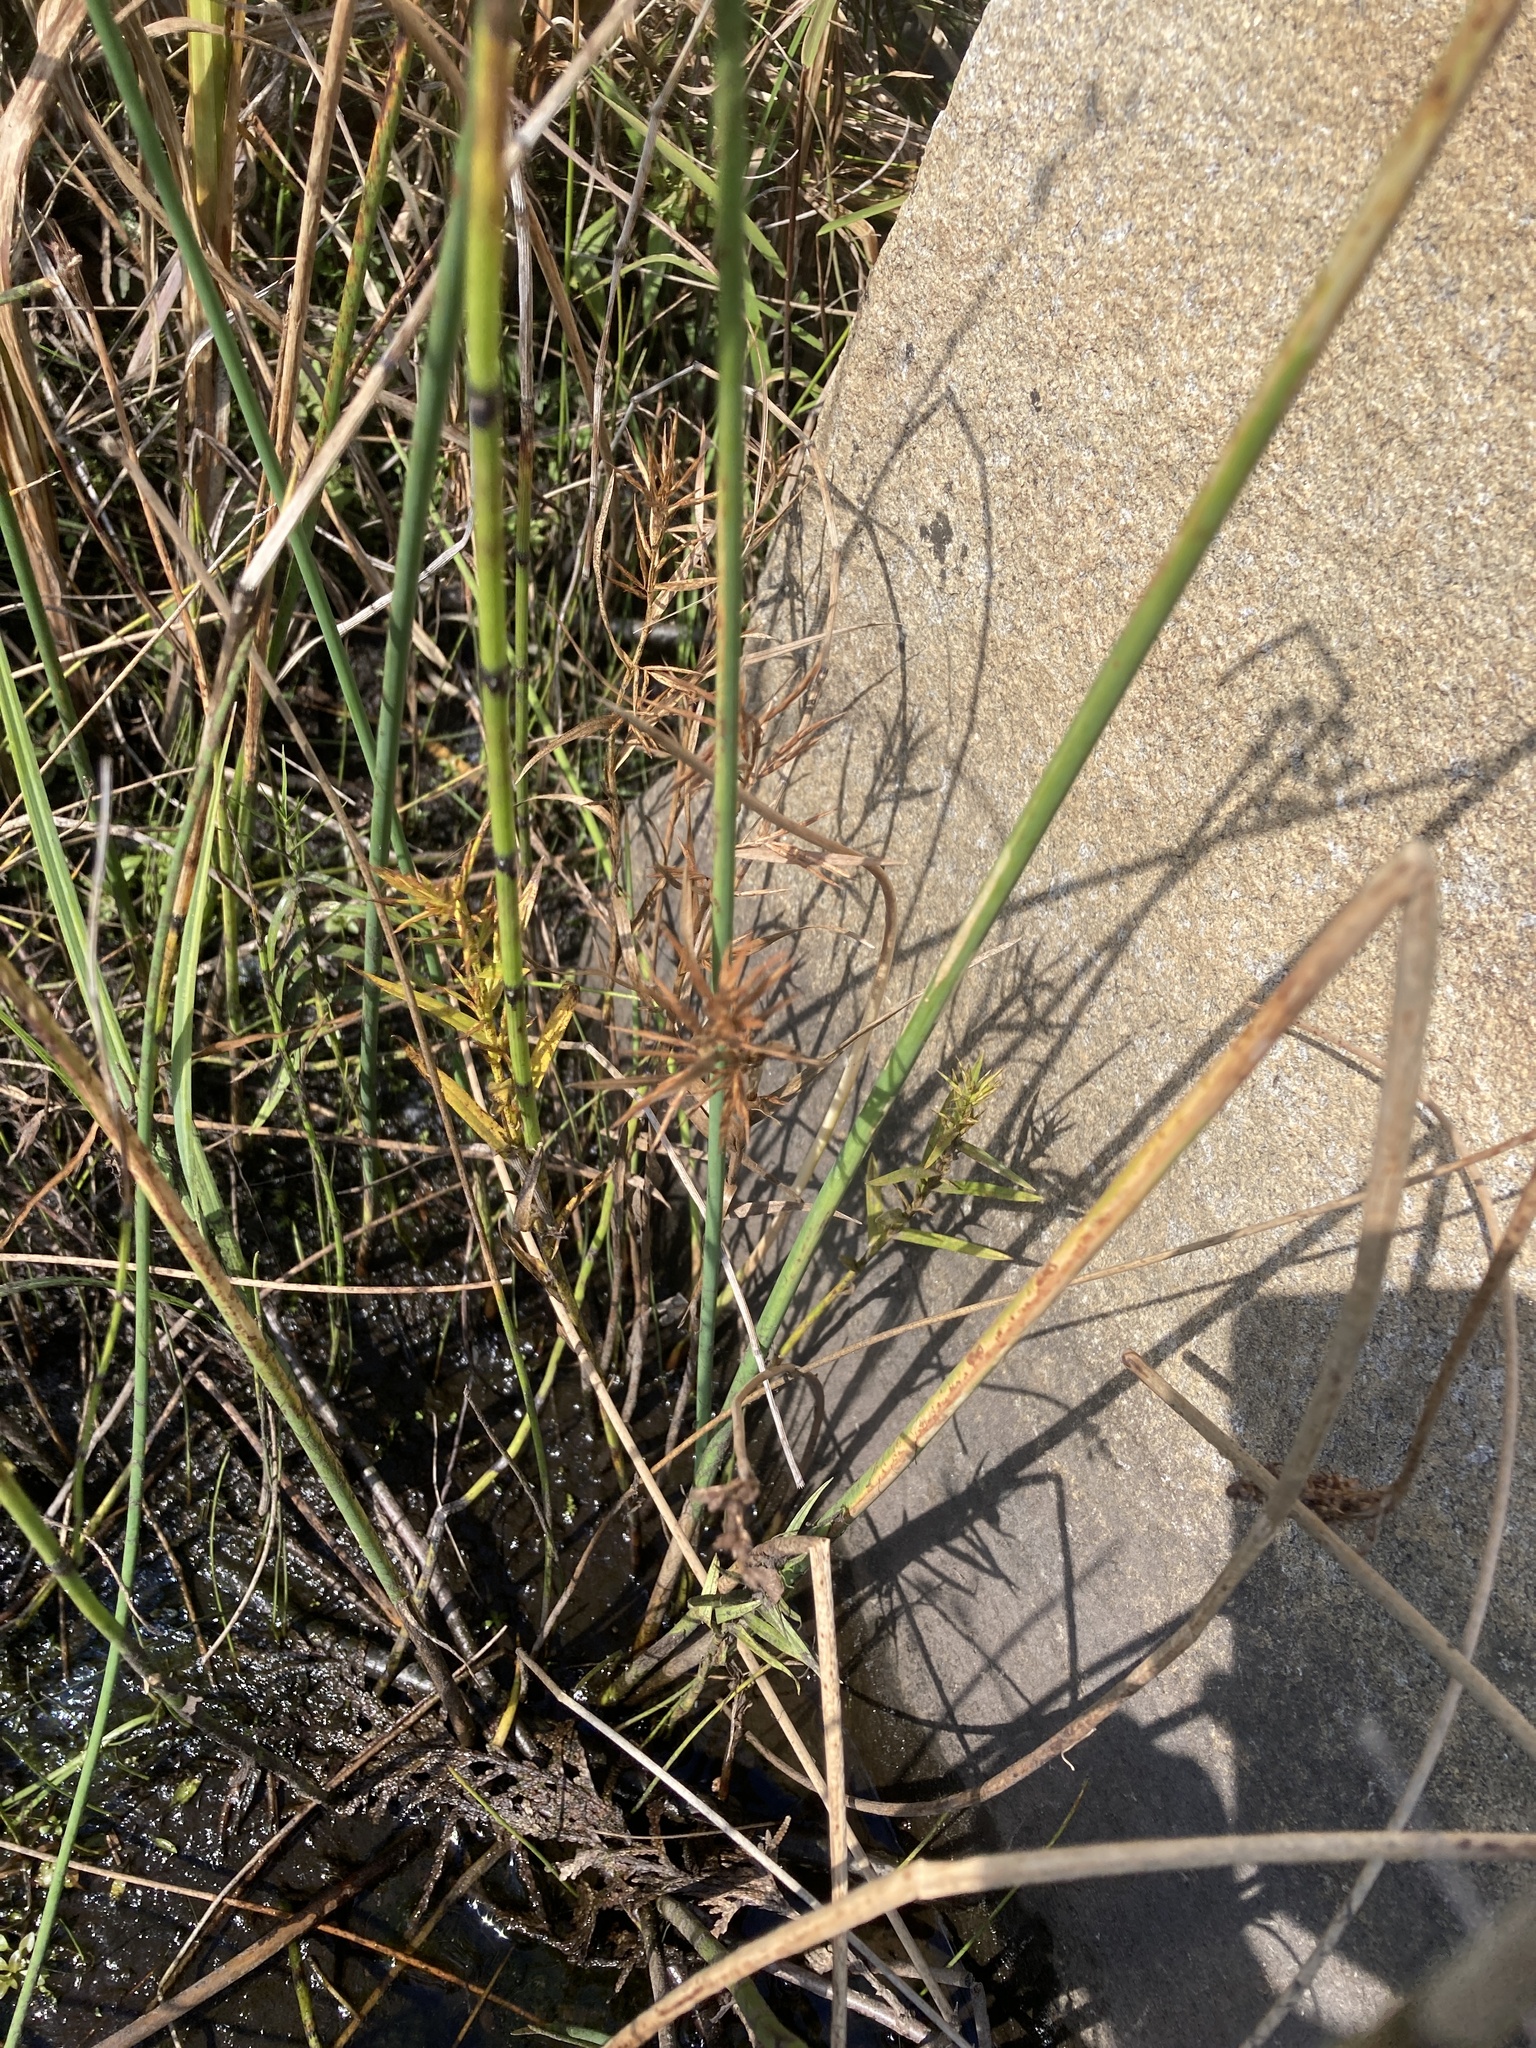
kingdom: Plantae
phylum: Tracheophyta
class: Liliopsida
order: Poales
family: Cyperaceae
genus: Dulichium
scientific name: Dulichium arundinaceum
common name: Three-way sedge
